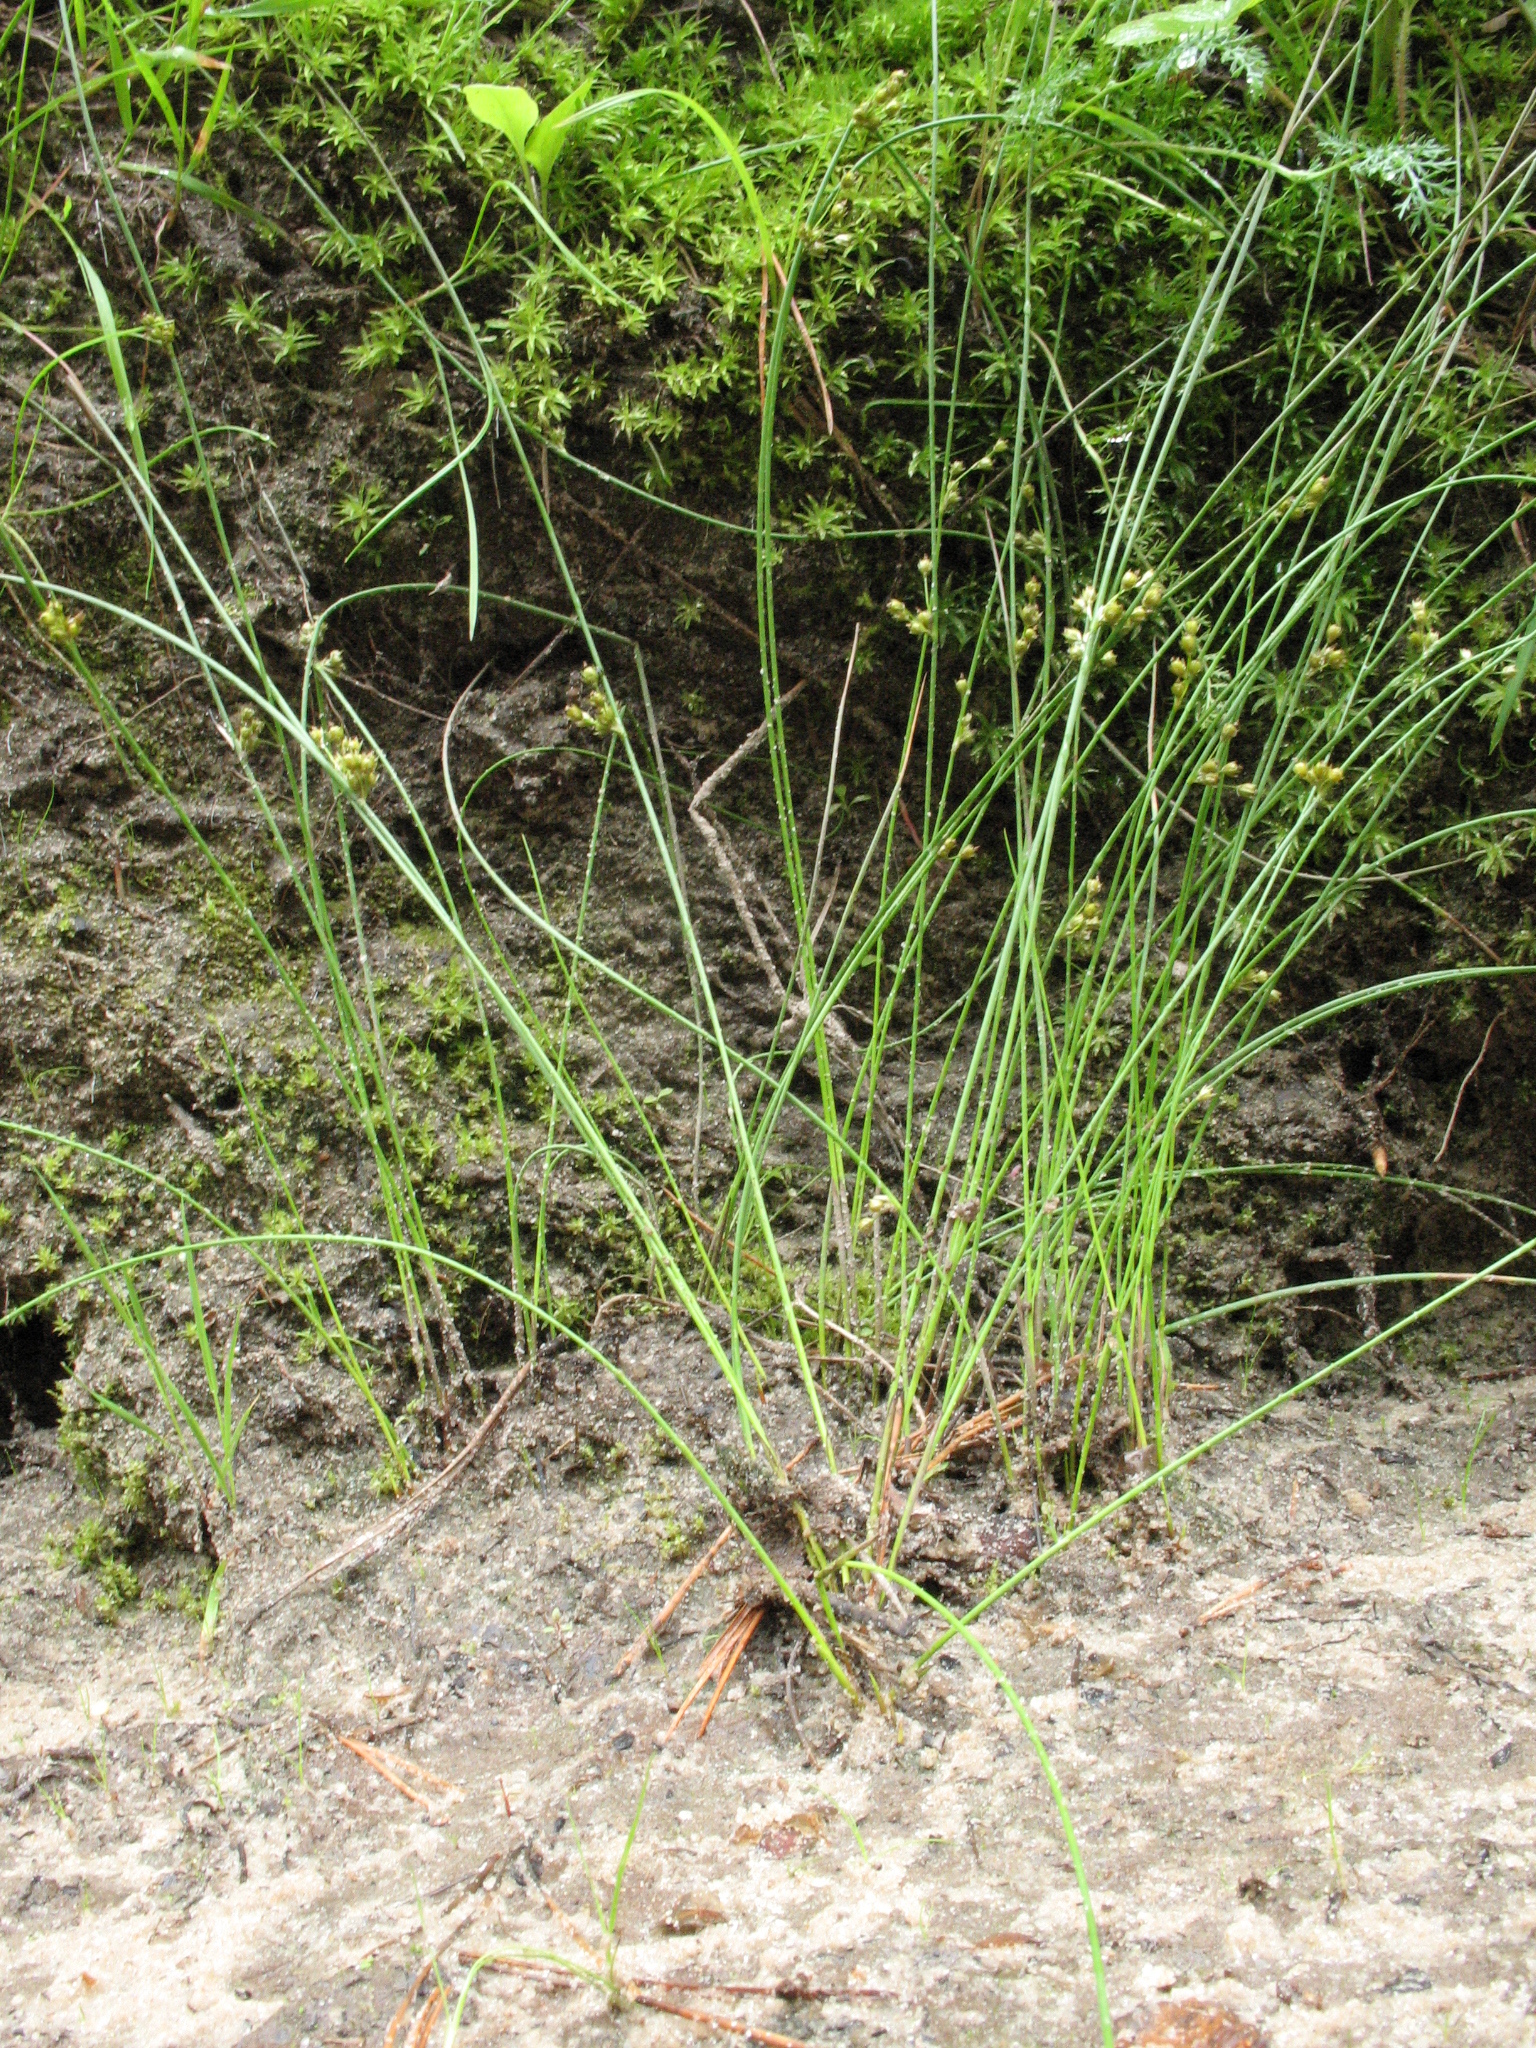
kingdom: Plantae
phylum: Tracheophyta
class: Liliopsida
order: Poales
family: Juncaceae
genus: Juncus
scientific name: Juncus filiformis
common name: Thread rush
